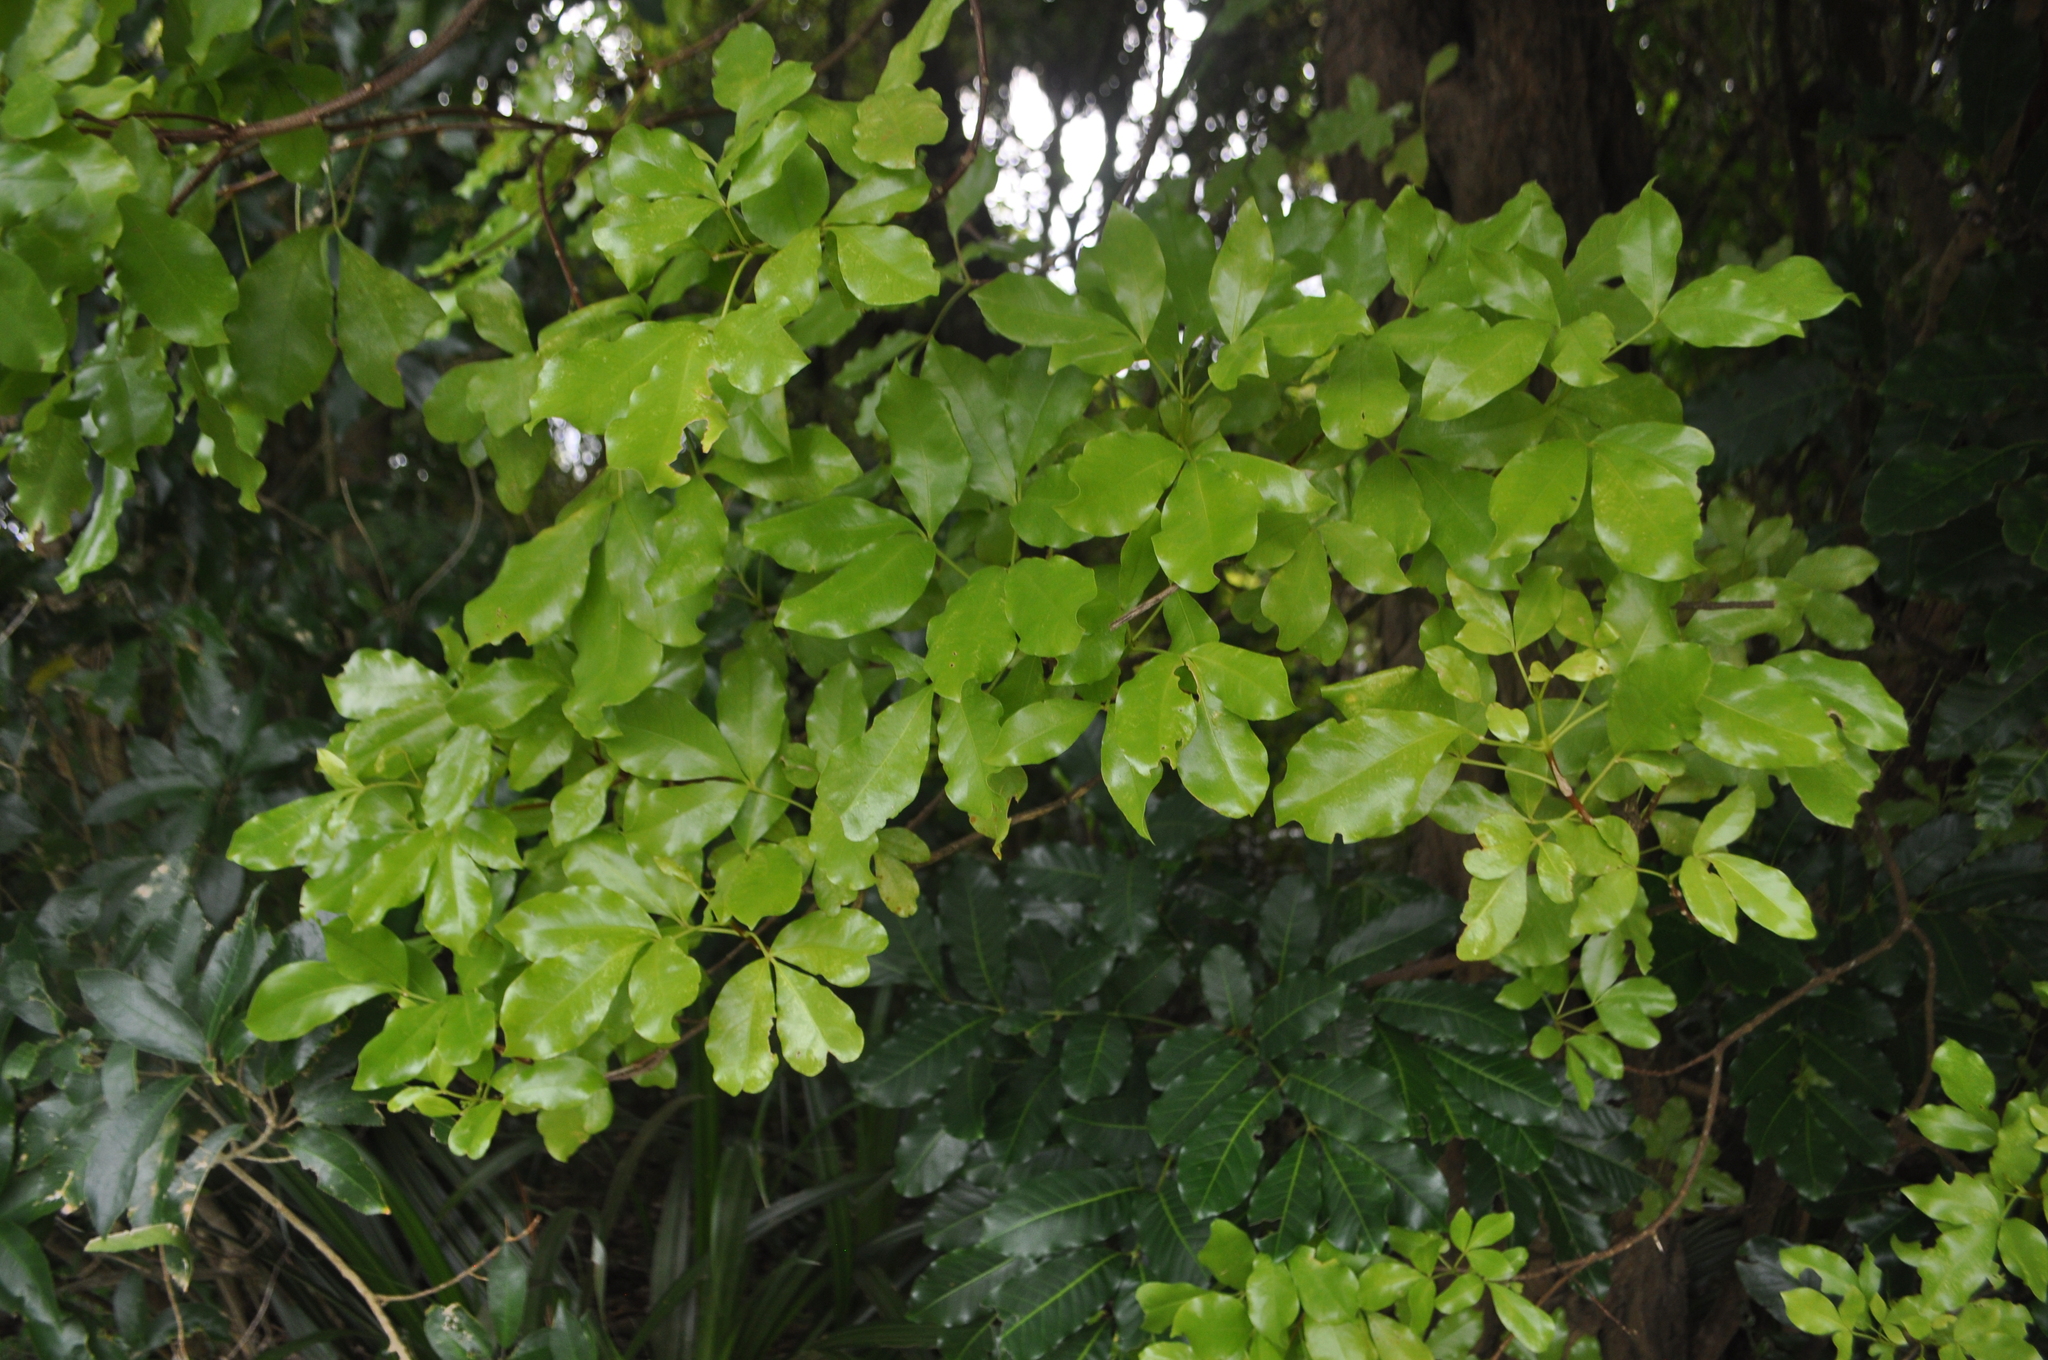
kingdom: Plantae
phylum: Tracheophyta
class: Magnoliopsida
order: Sapindales
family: Rutaceae
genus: Melicope
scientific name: Melicope ternata
